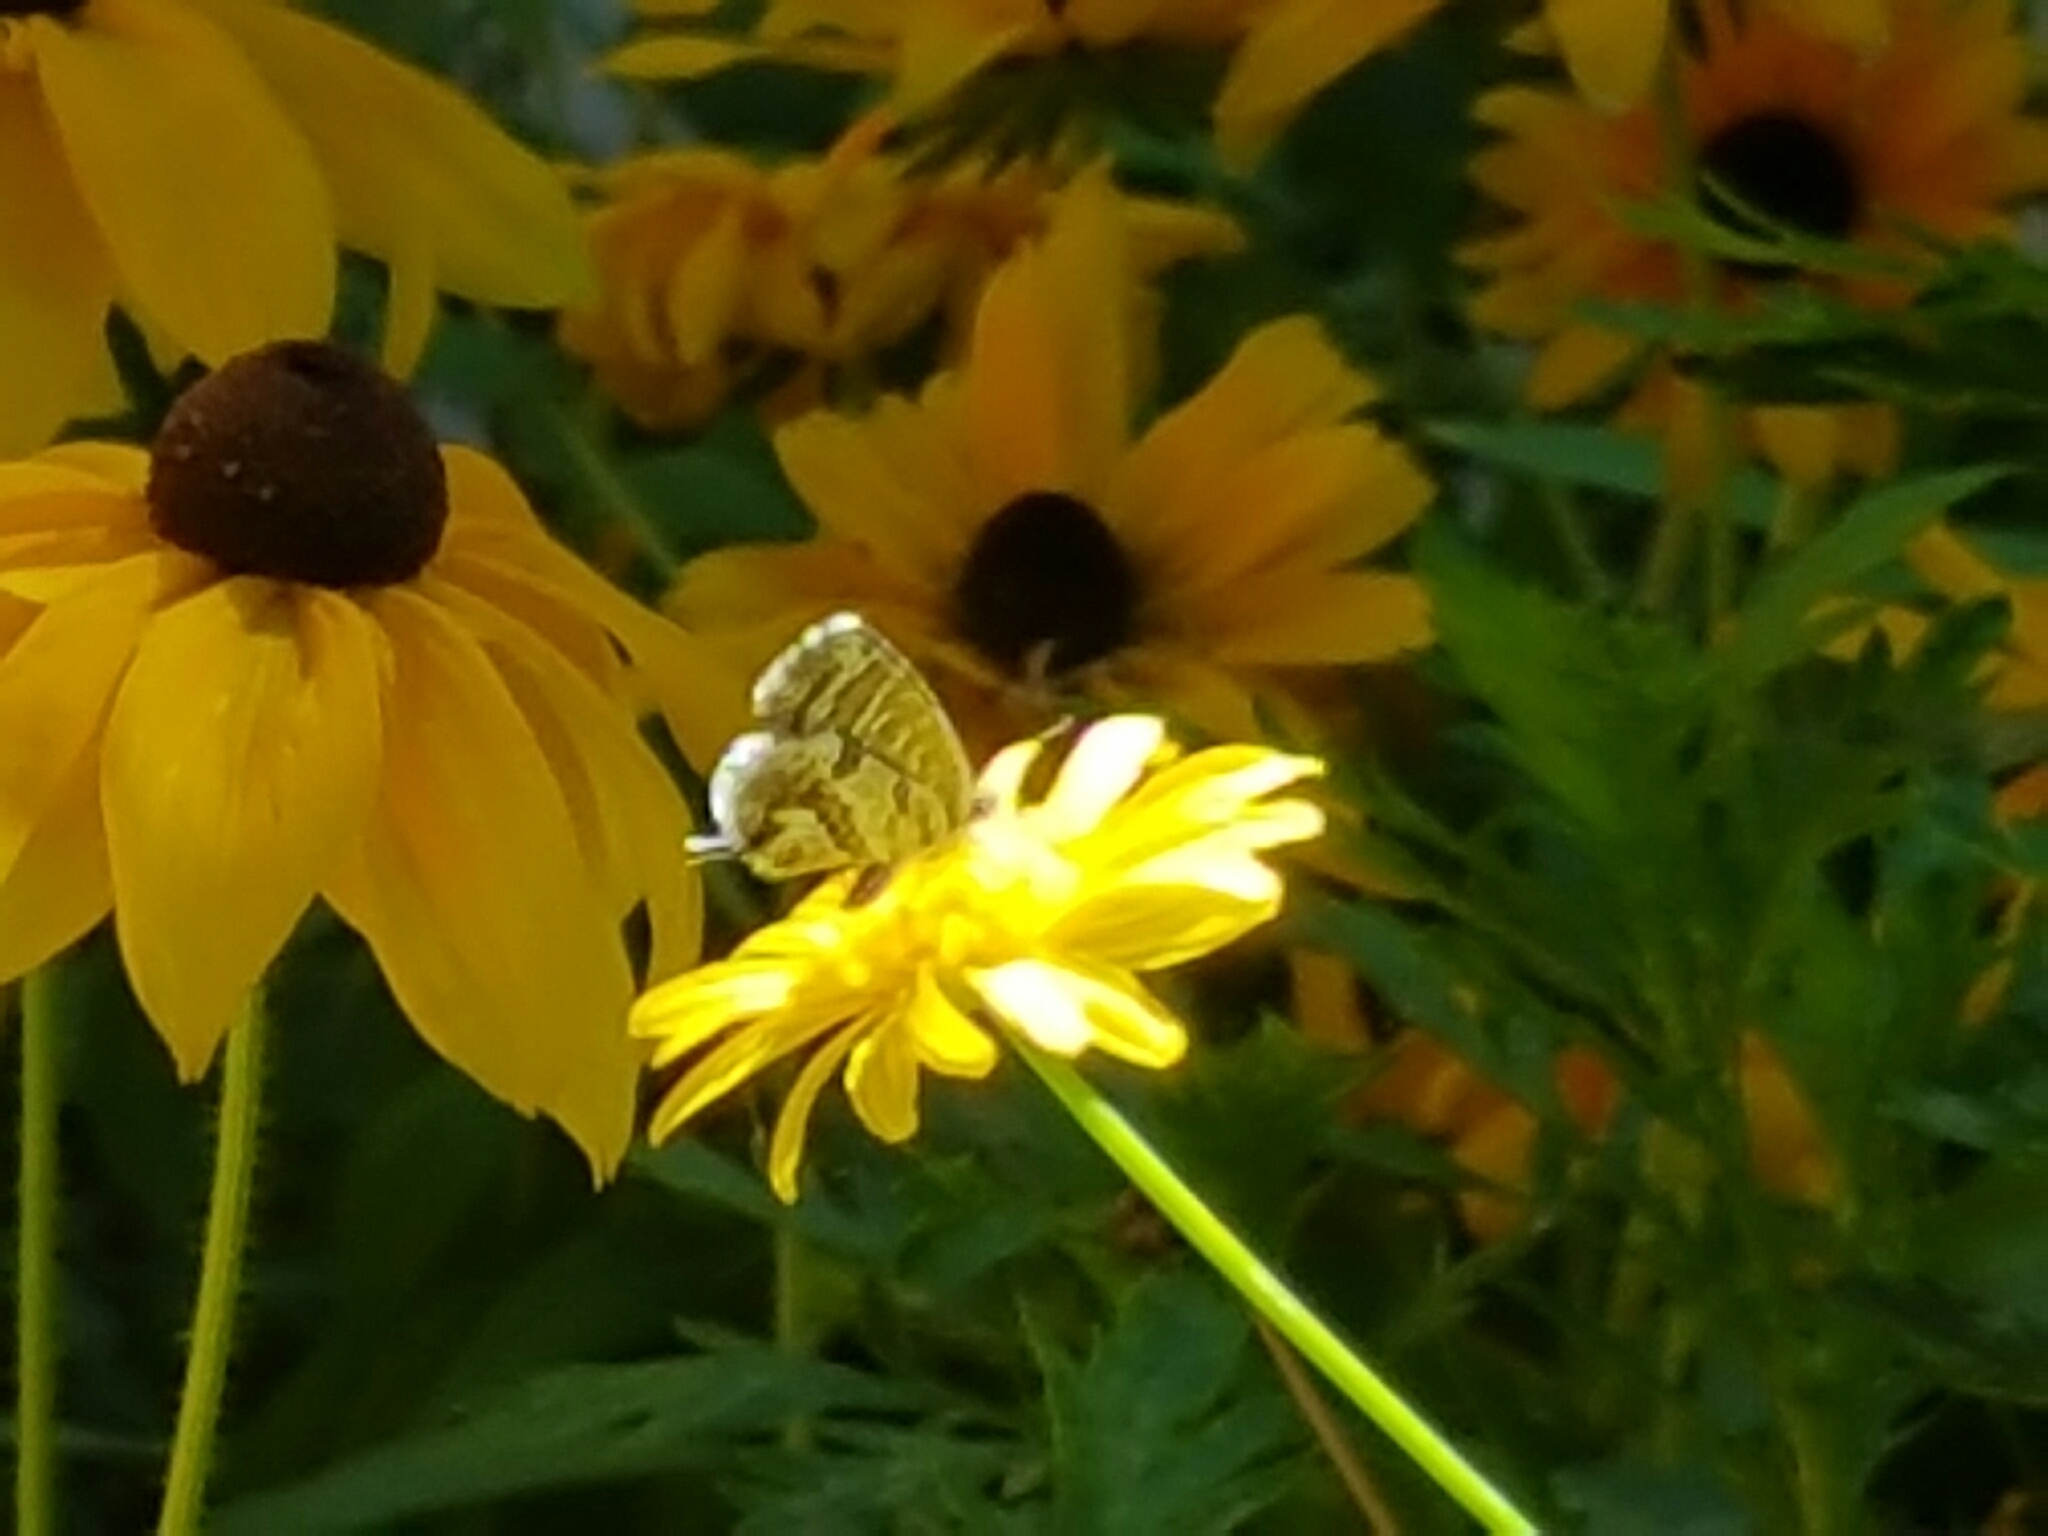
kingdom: Animalia
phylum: Arthropoda
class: Insecta
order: Lepidoptera
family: Lycaenidae
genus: Cacyreus
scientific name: Cacyreus marshalli
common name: Geranium bronze
